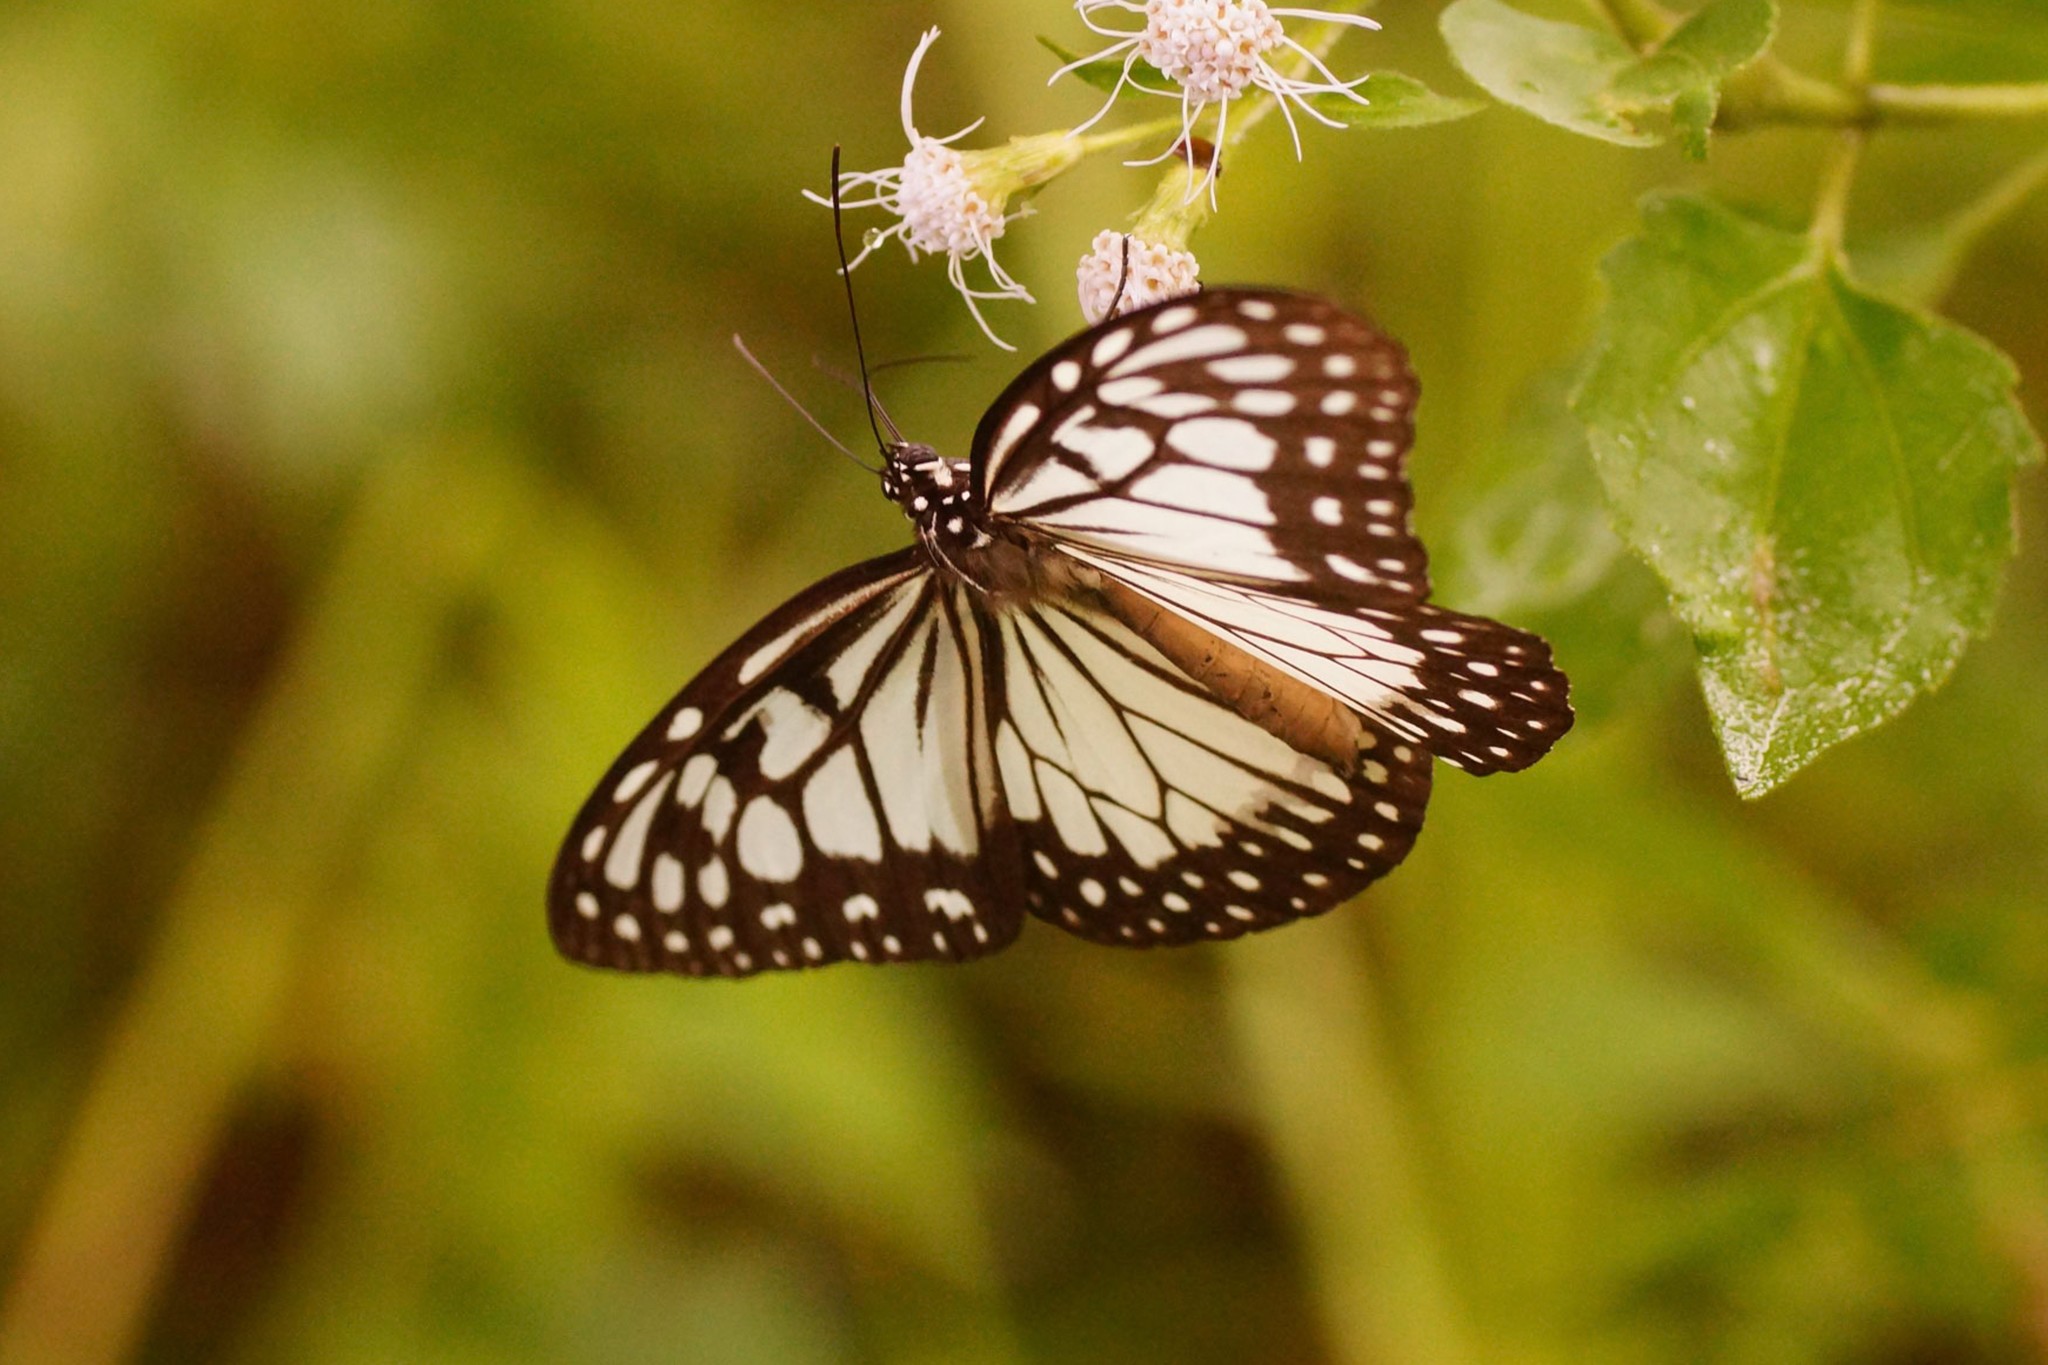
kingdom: Animalia
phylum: Arthropoda
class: Insecta
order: Lepidoptera
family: Nymphalidae
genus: Ideopsis
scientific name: Ideopsis juventa
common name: Grey glassy tiger
